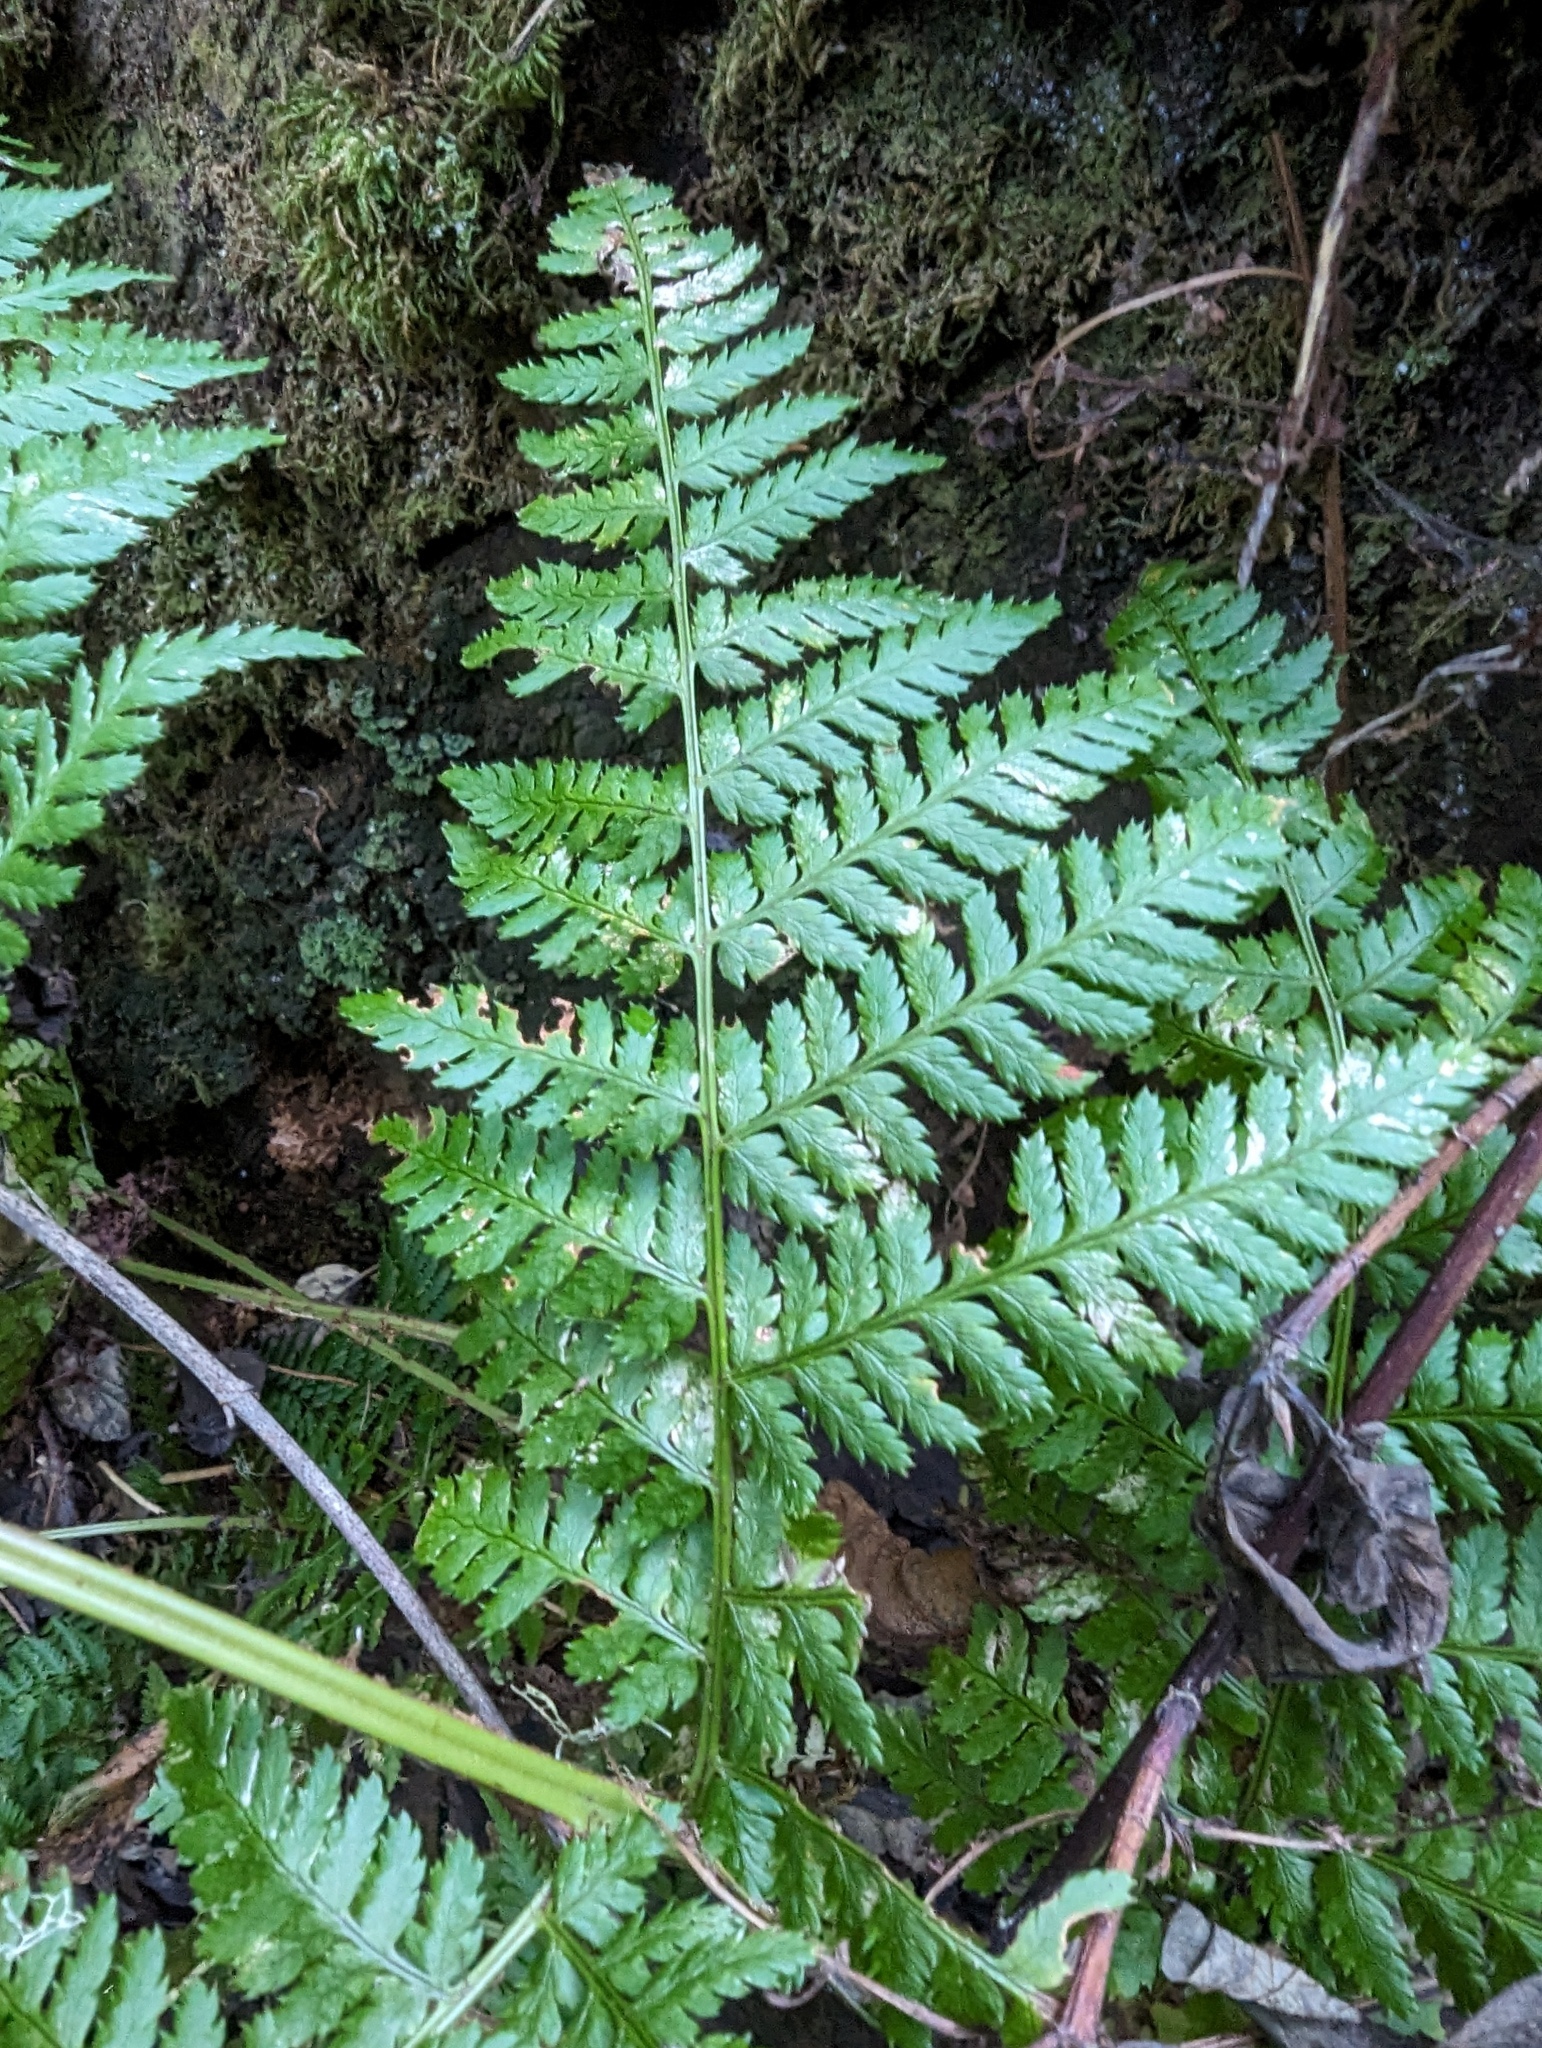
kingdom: Plantae
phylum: Tracheophyta
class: Polypodiopsida
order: Polypodiales
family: Dryopteridaceae
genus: Dryopteris
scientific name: Dryopteris expansa
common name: Northern buckler fern
